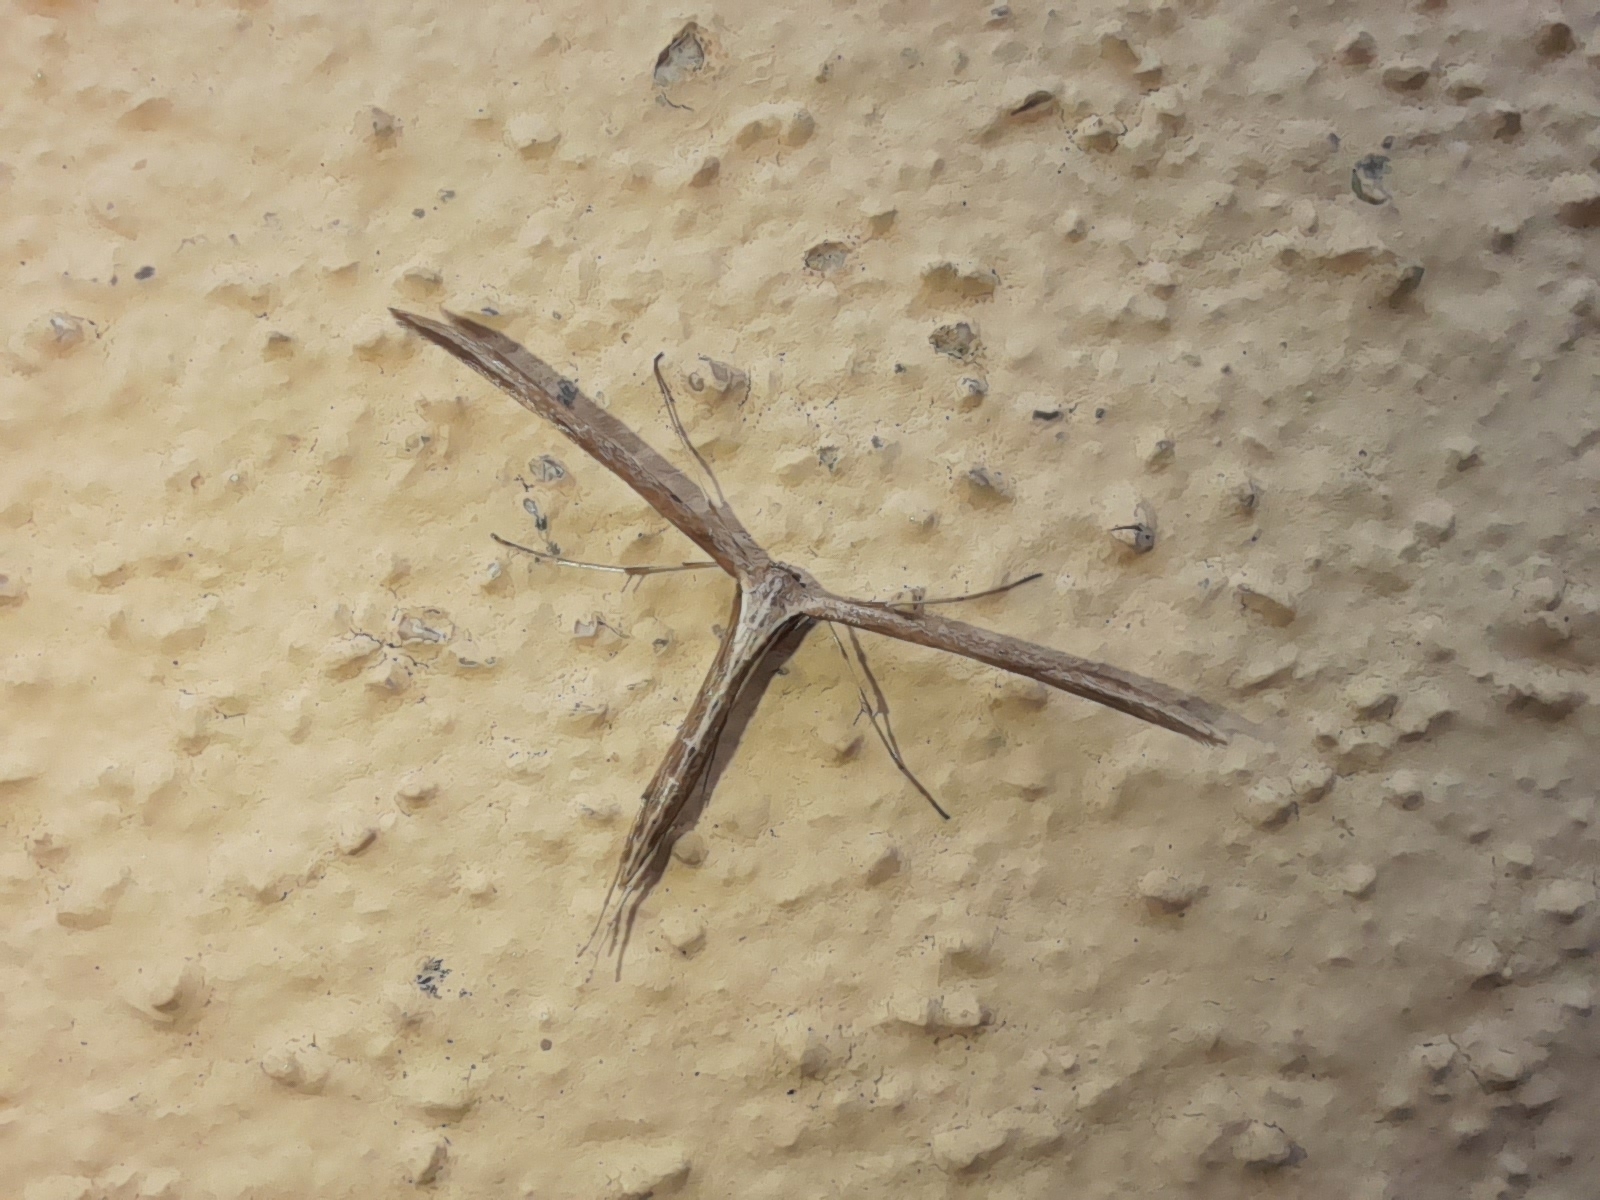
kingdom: Animalia
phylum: Arthropoda
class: Insecta
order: Lepidoptera
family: Pterophoridae
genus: Emmelina
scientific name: Emmelina monodactyla
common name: Common plume
